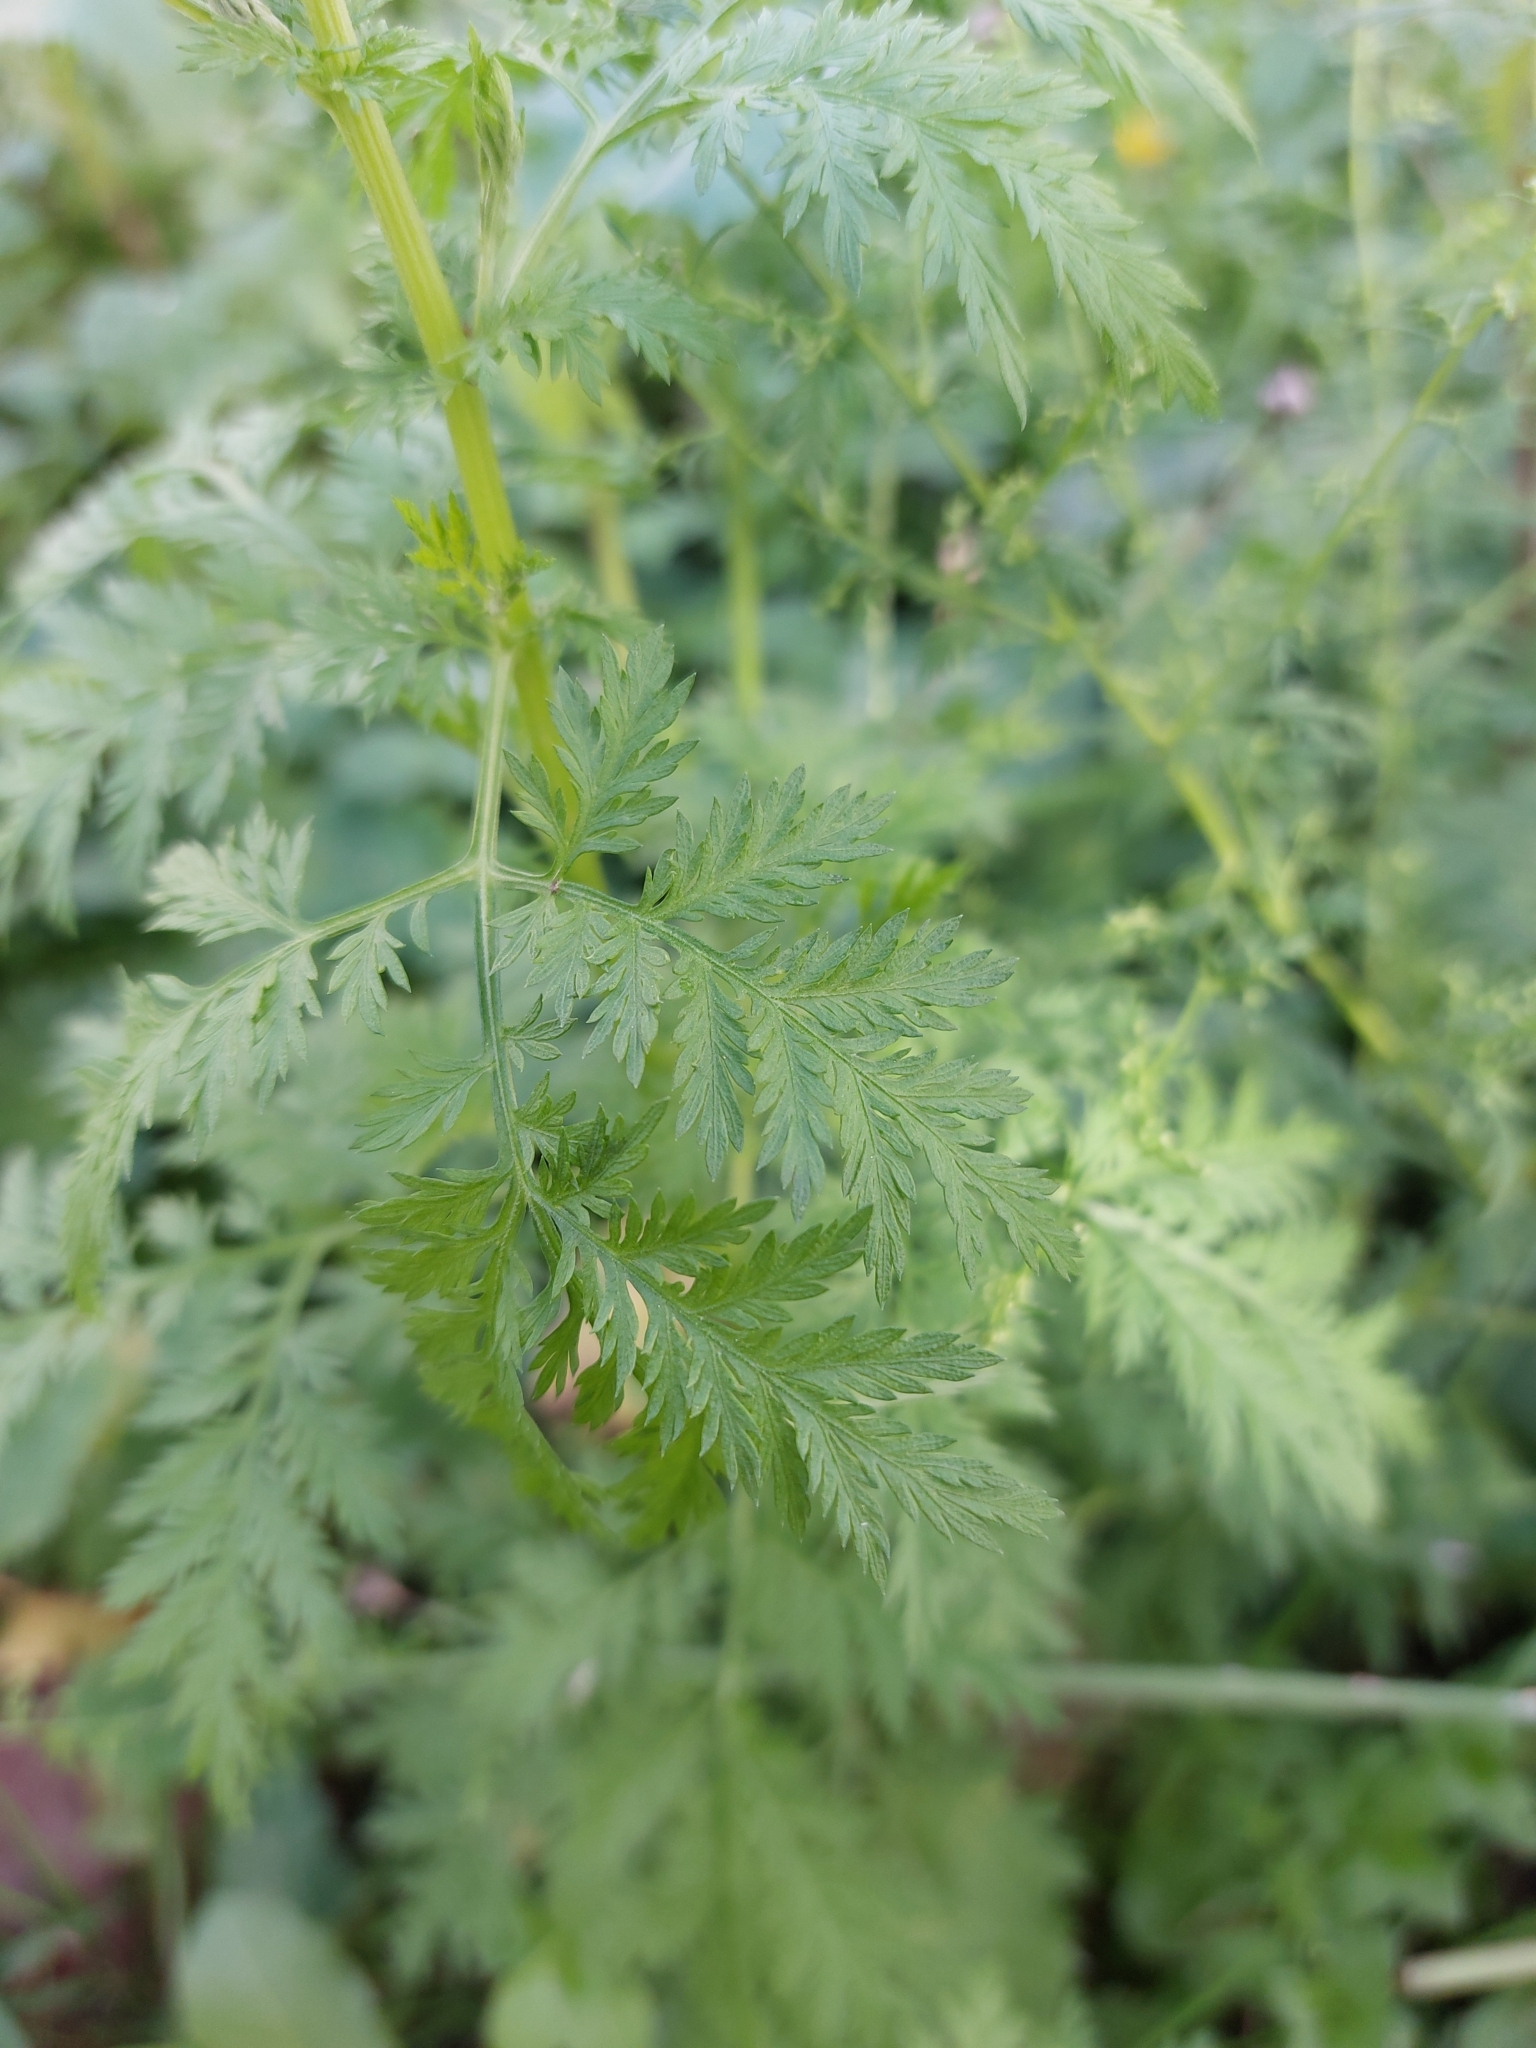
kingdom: Plantae
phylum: Tracheophyta
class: Magnoliopsida
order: Asterales
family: Asteraceae
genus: Artemisia
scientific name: Artemisia annua
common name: Sweet sagewort
